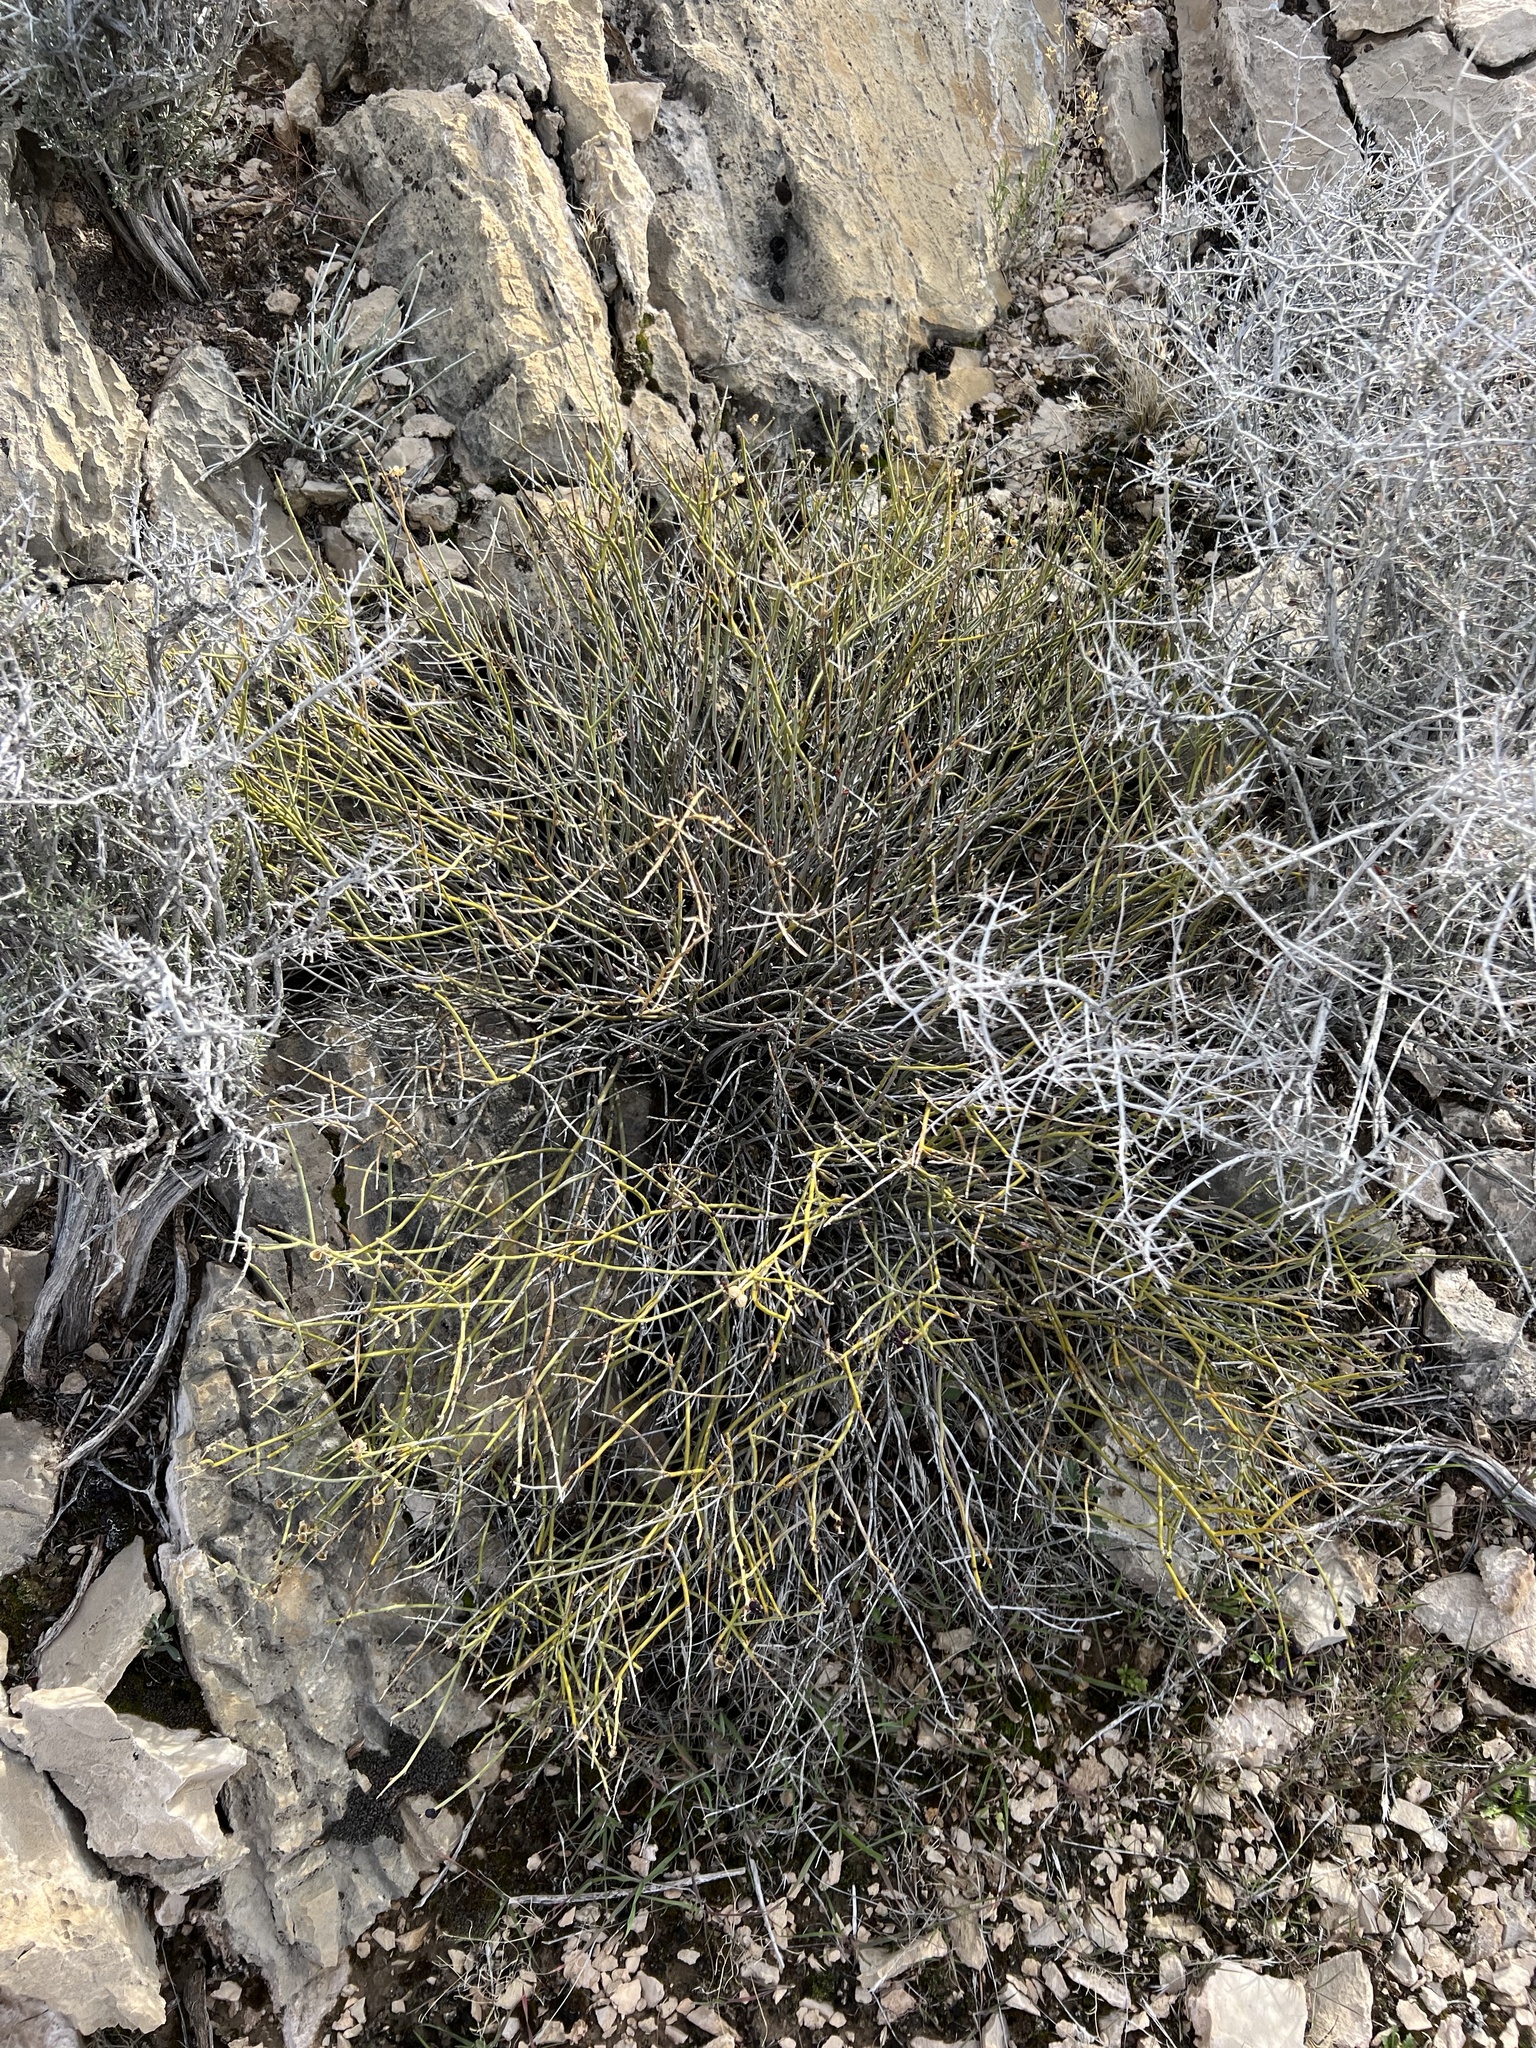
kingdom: Plantae
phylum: Tracheophyta
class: Magnoliopsida
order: Sapindales
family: Rutaceae
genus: Thamnosma
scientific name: Thamnosma montana
